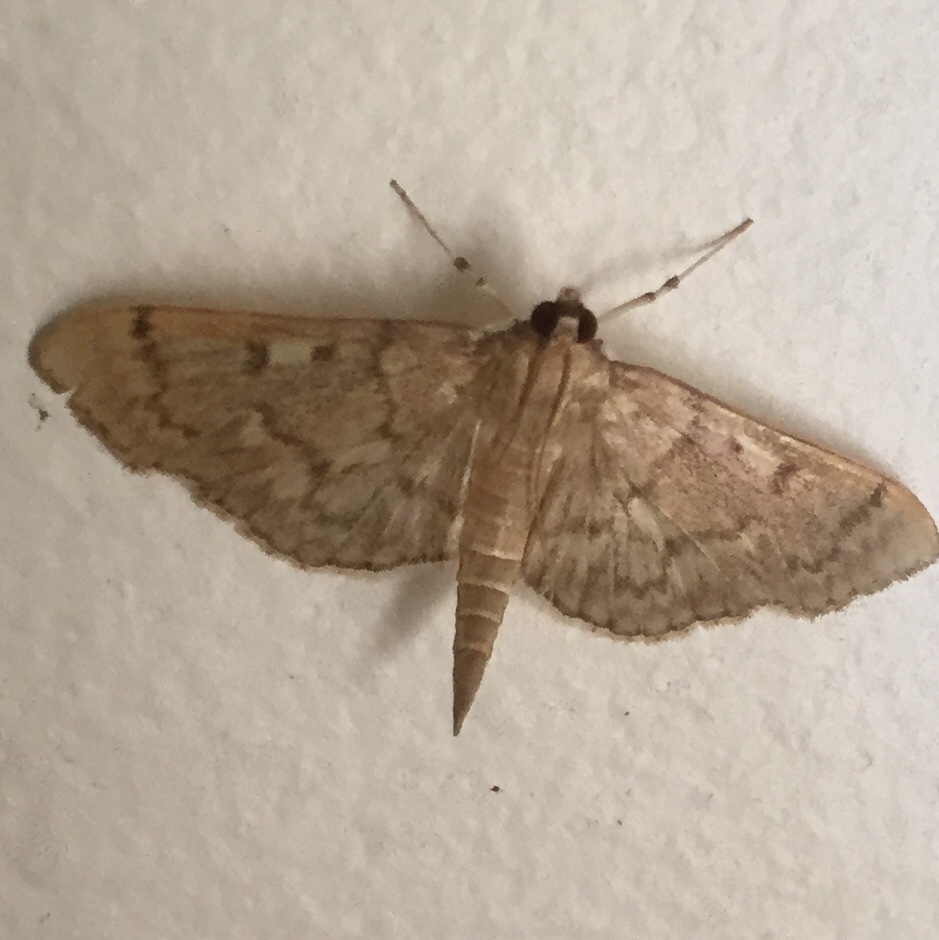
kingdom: Animalia
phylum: Arthropoda
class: Insecta
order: Lepidoptera
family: Crambidae
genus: Herpetogramma
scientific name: Herpetogramma aeglealis
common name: Serpentine webworm moth
